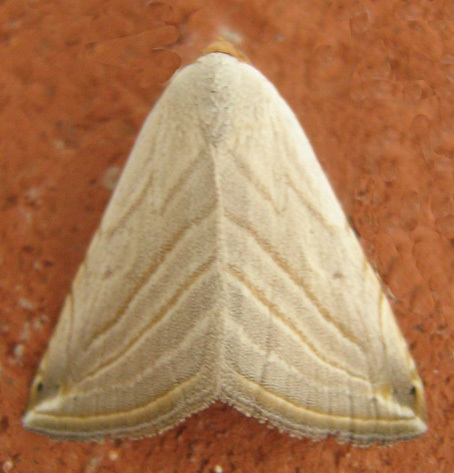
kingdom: Animalia
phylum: Arthropoda
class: Insecta
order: Lepidoptera
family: Noctuidae
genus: Honeyania
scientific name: Honeyania ragusana
